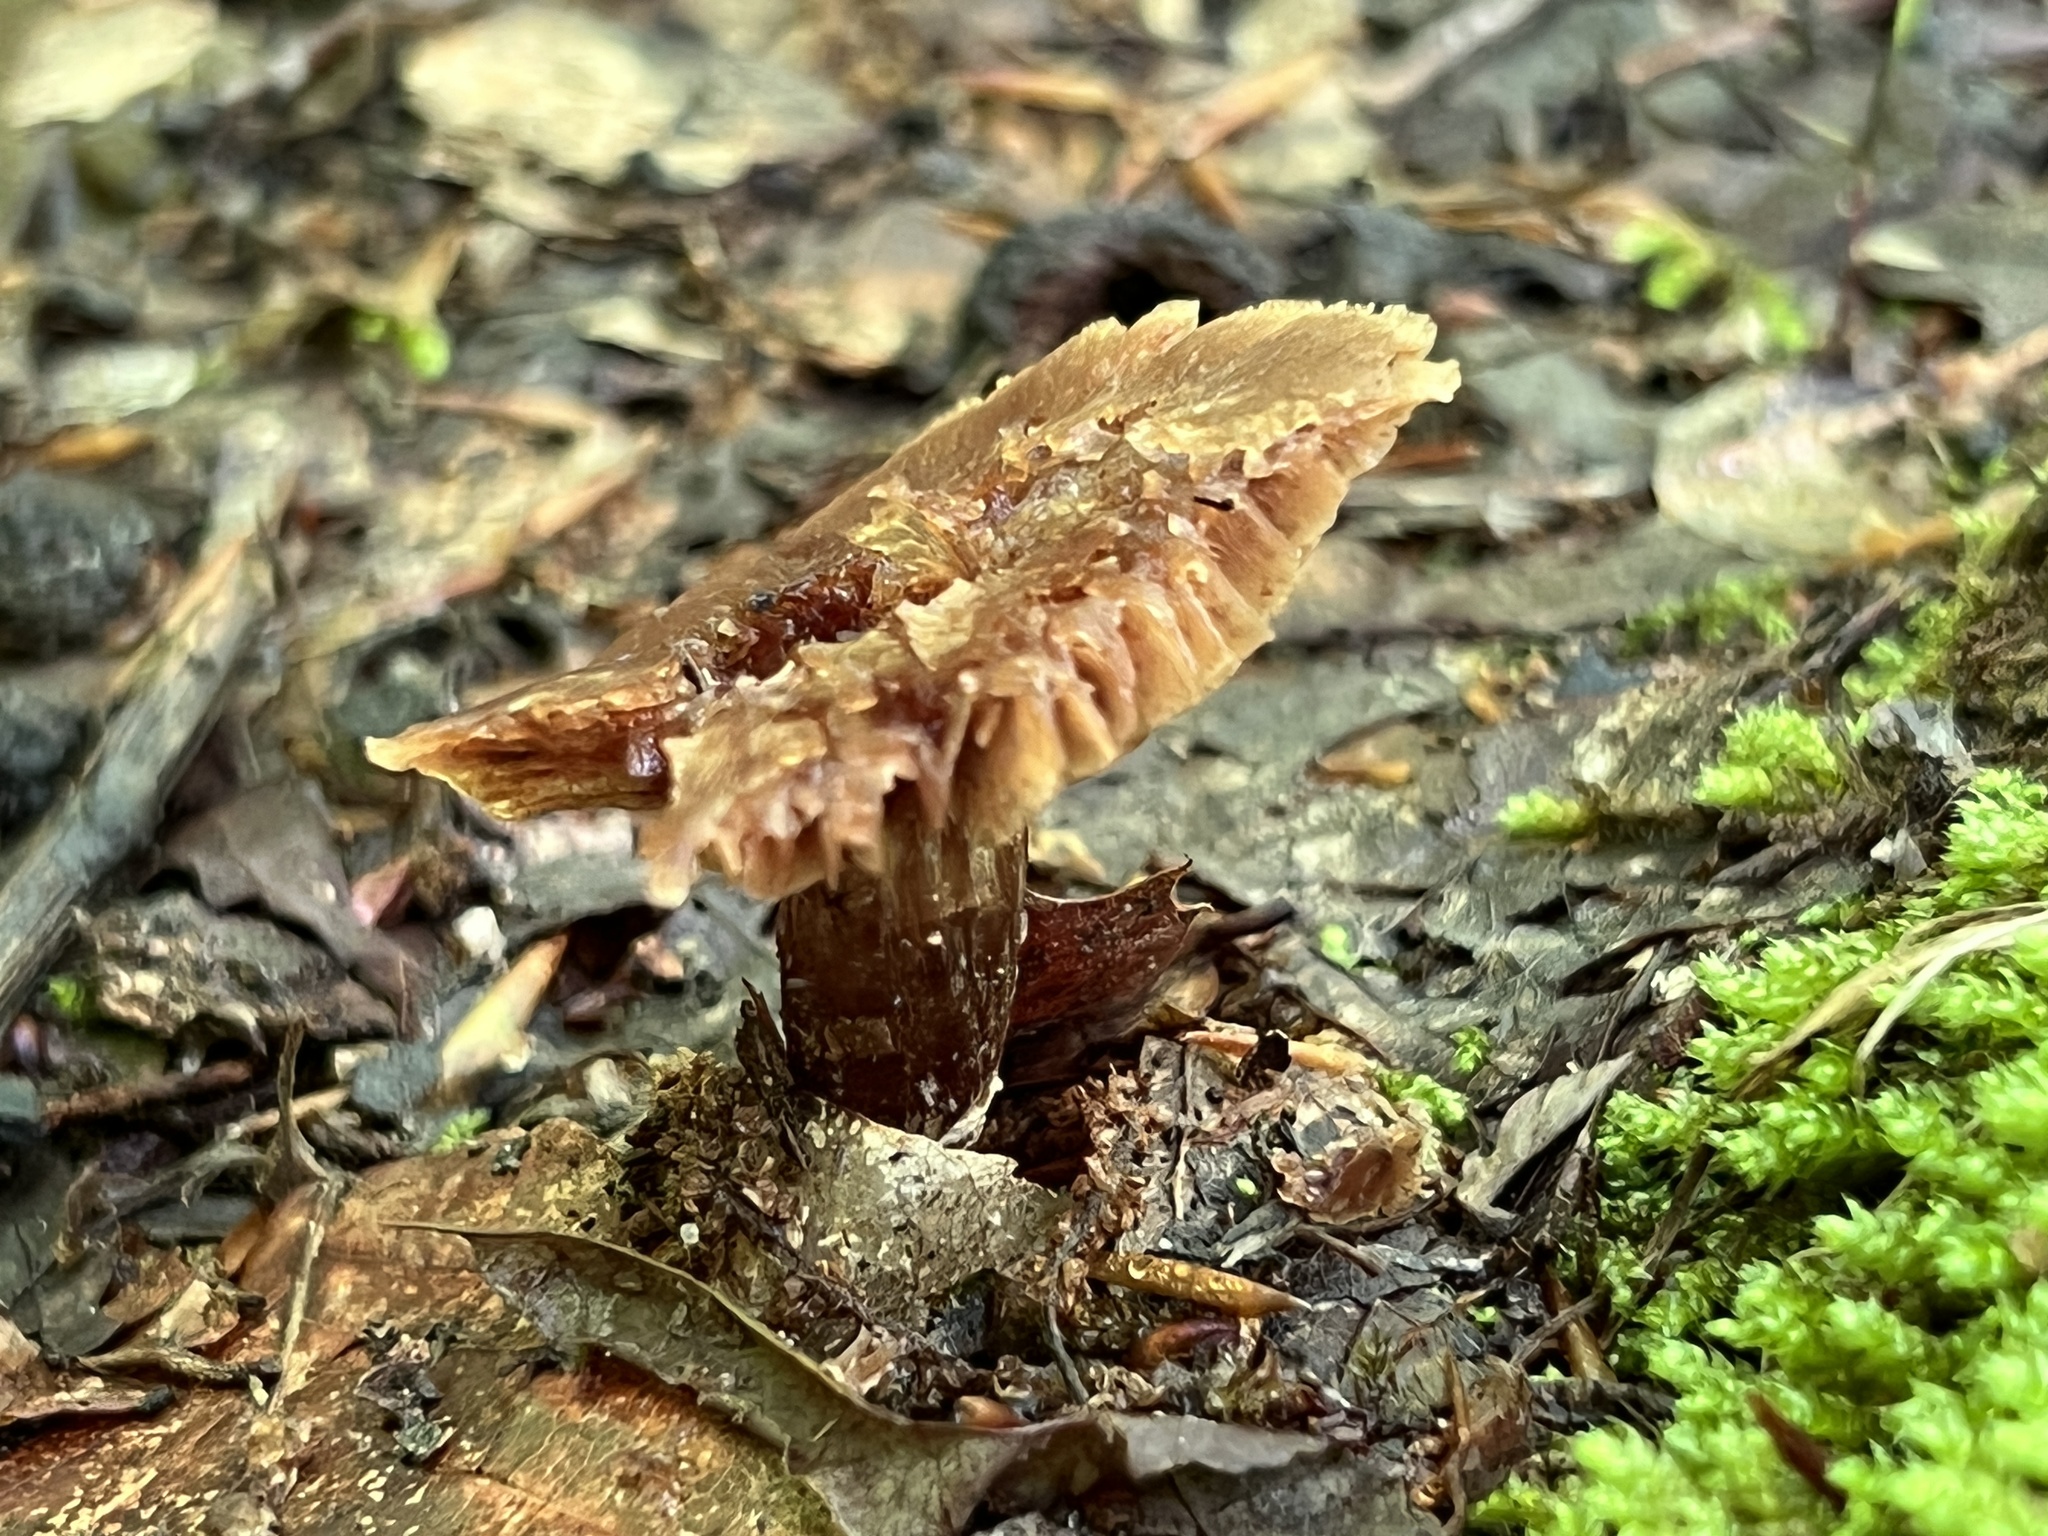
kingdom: Fungi
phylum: Basidiomycota
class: Agaricomycetes
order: Agaricales
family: Cortinariaceae
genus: Cortinarius
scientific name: Cortinarius
